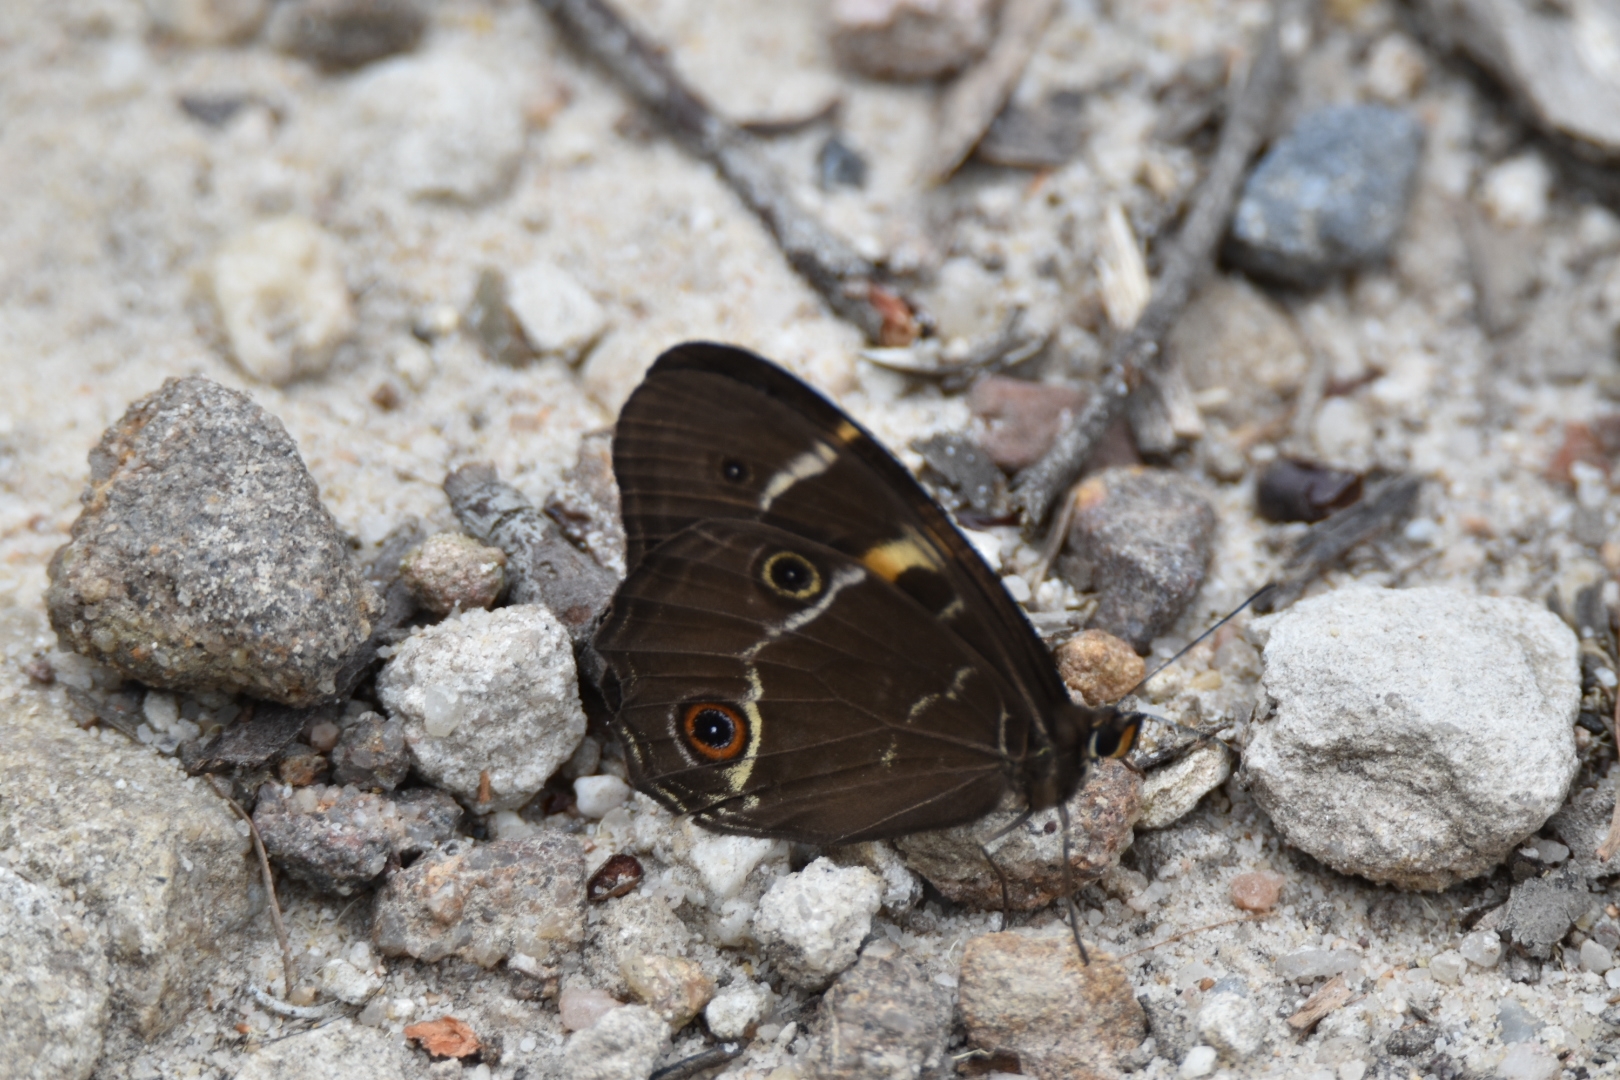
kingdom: Animalia
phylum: Arthropoda
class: Insecta
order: Lepidoptera
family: Nymphalidae
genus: Tisiphone
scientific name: Tisiphone abeona
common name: Swordgrass brown
